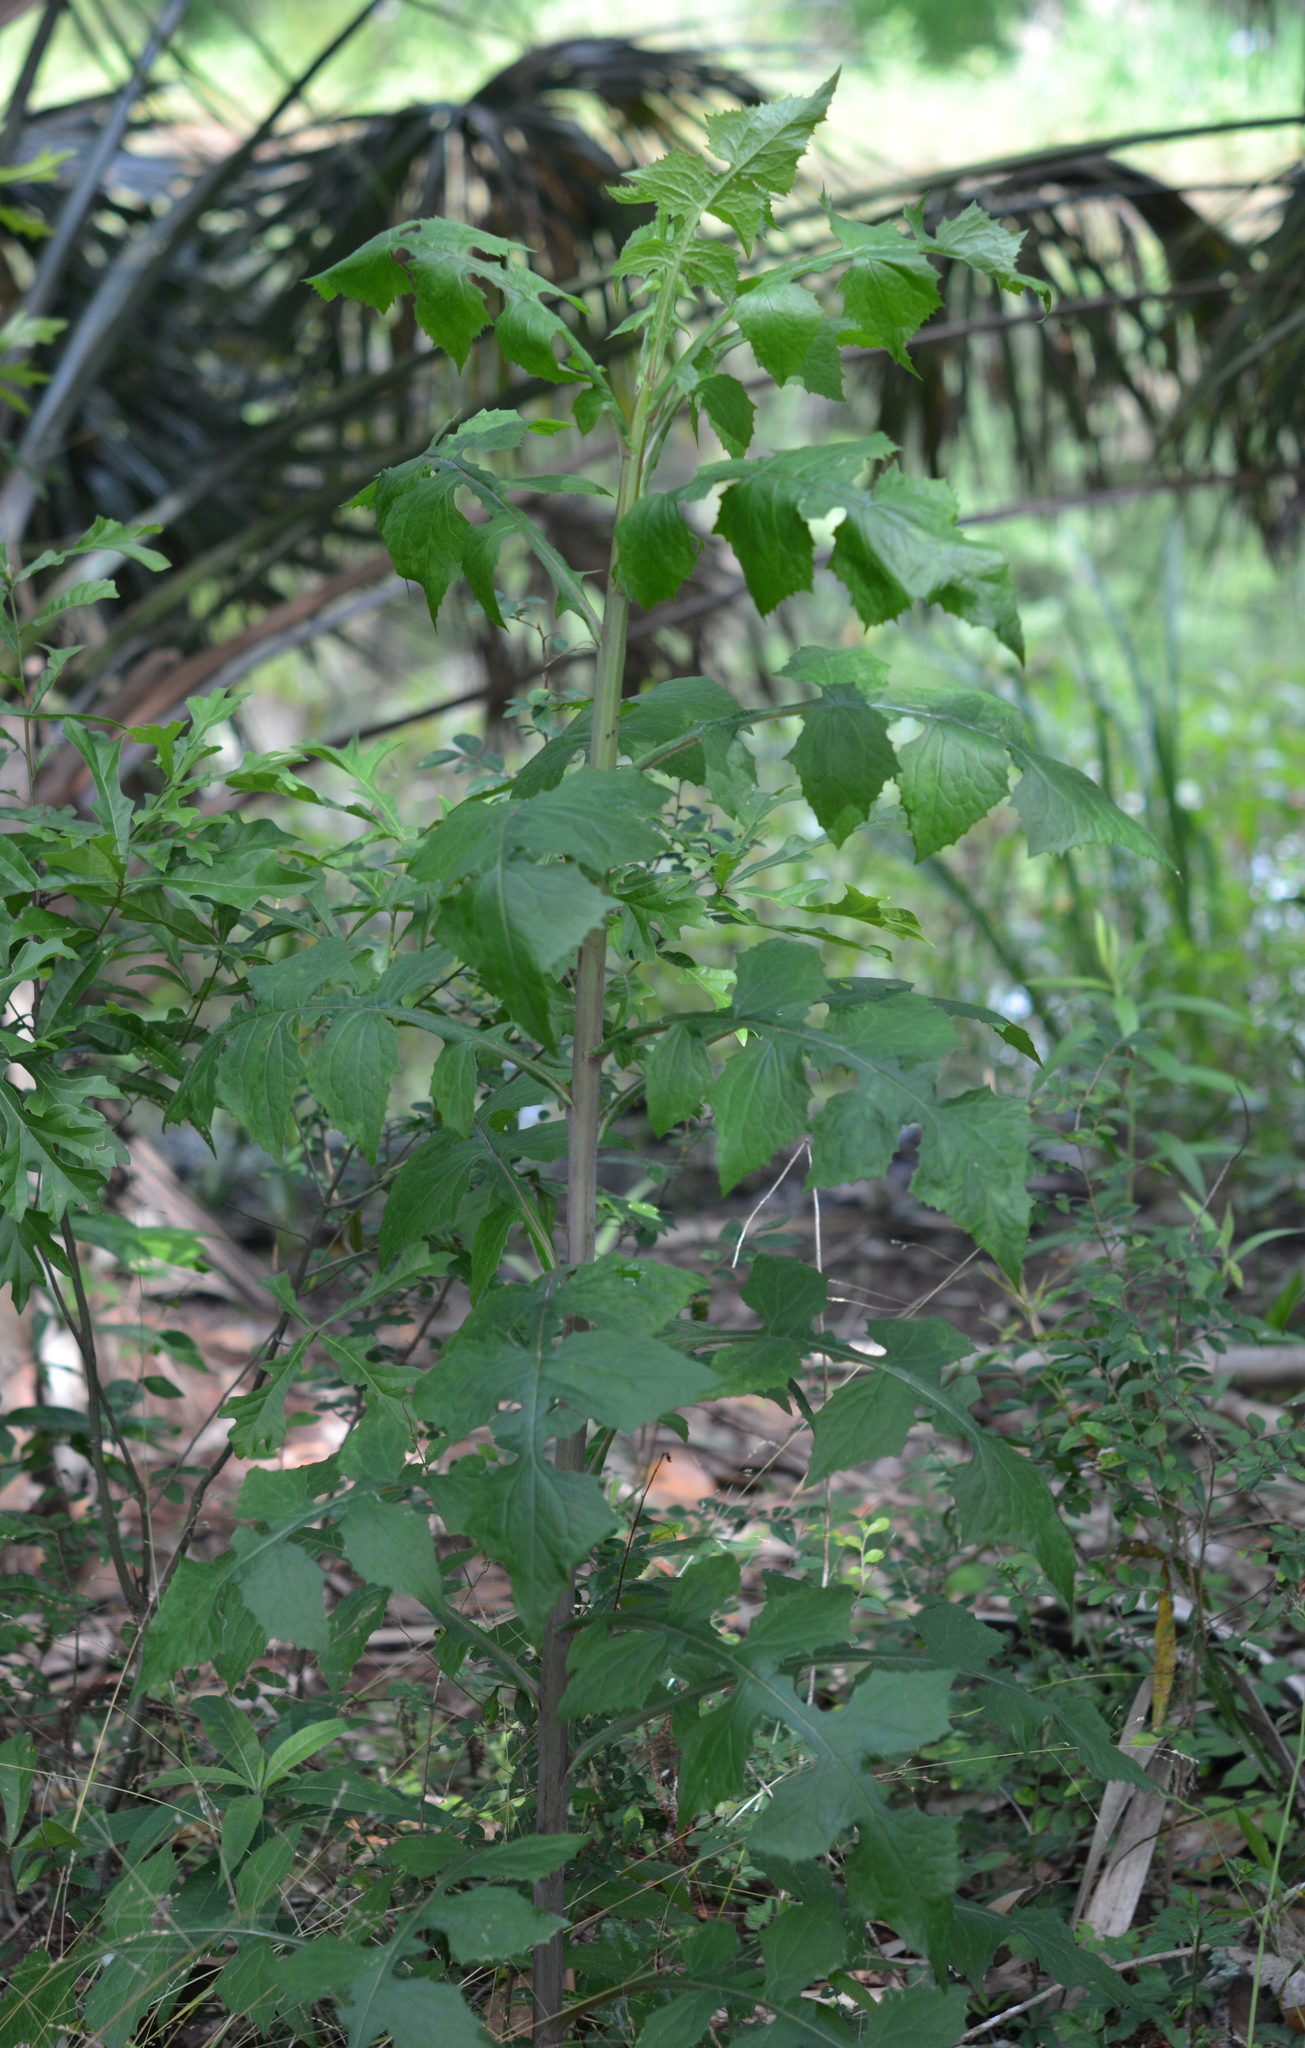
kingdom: Plantae
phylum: Tracheophyta
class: Magnoliopsida
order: Asterales
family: Asteraceae
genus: Lactuca
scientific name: Lactuca floridana
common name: Woodland lettuce
